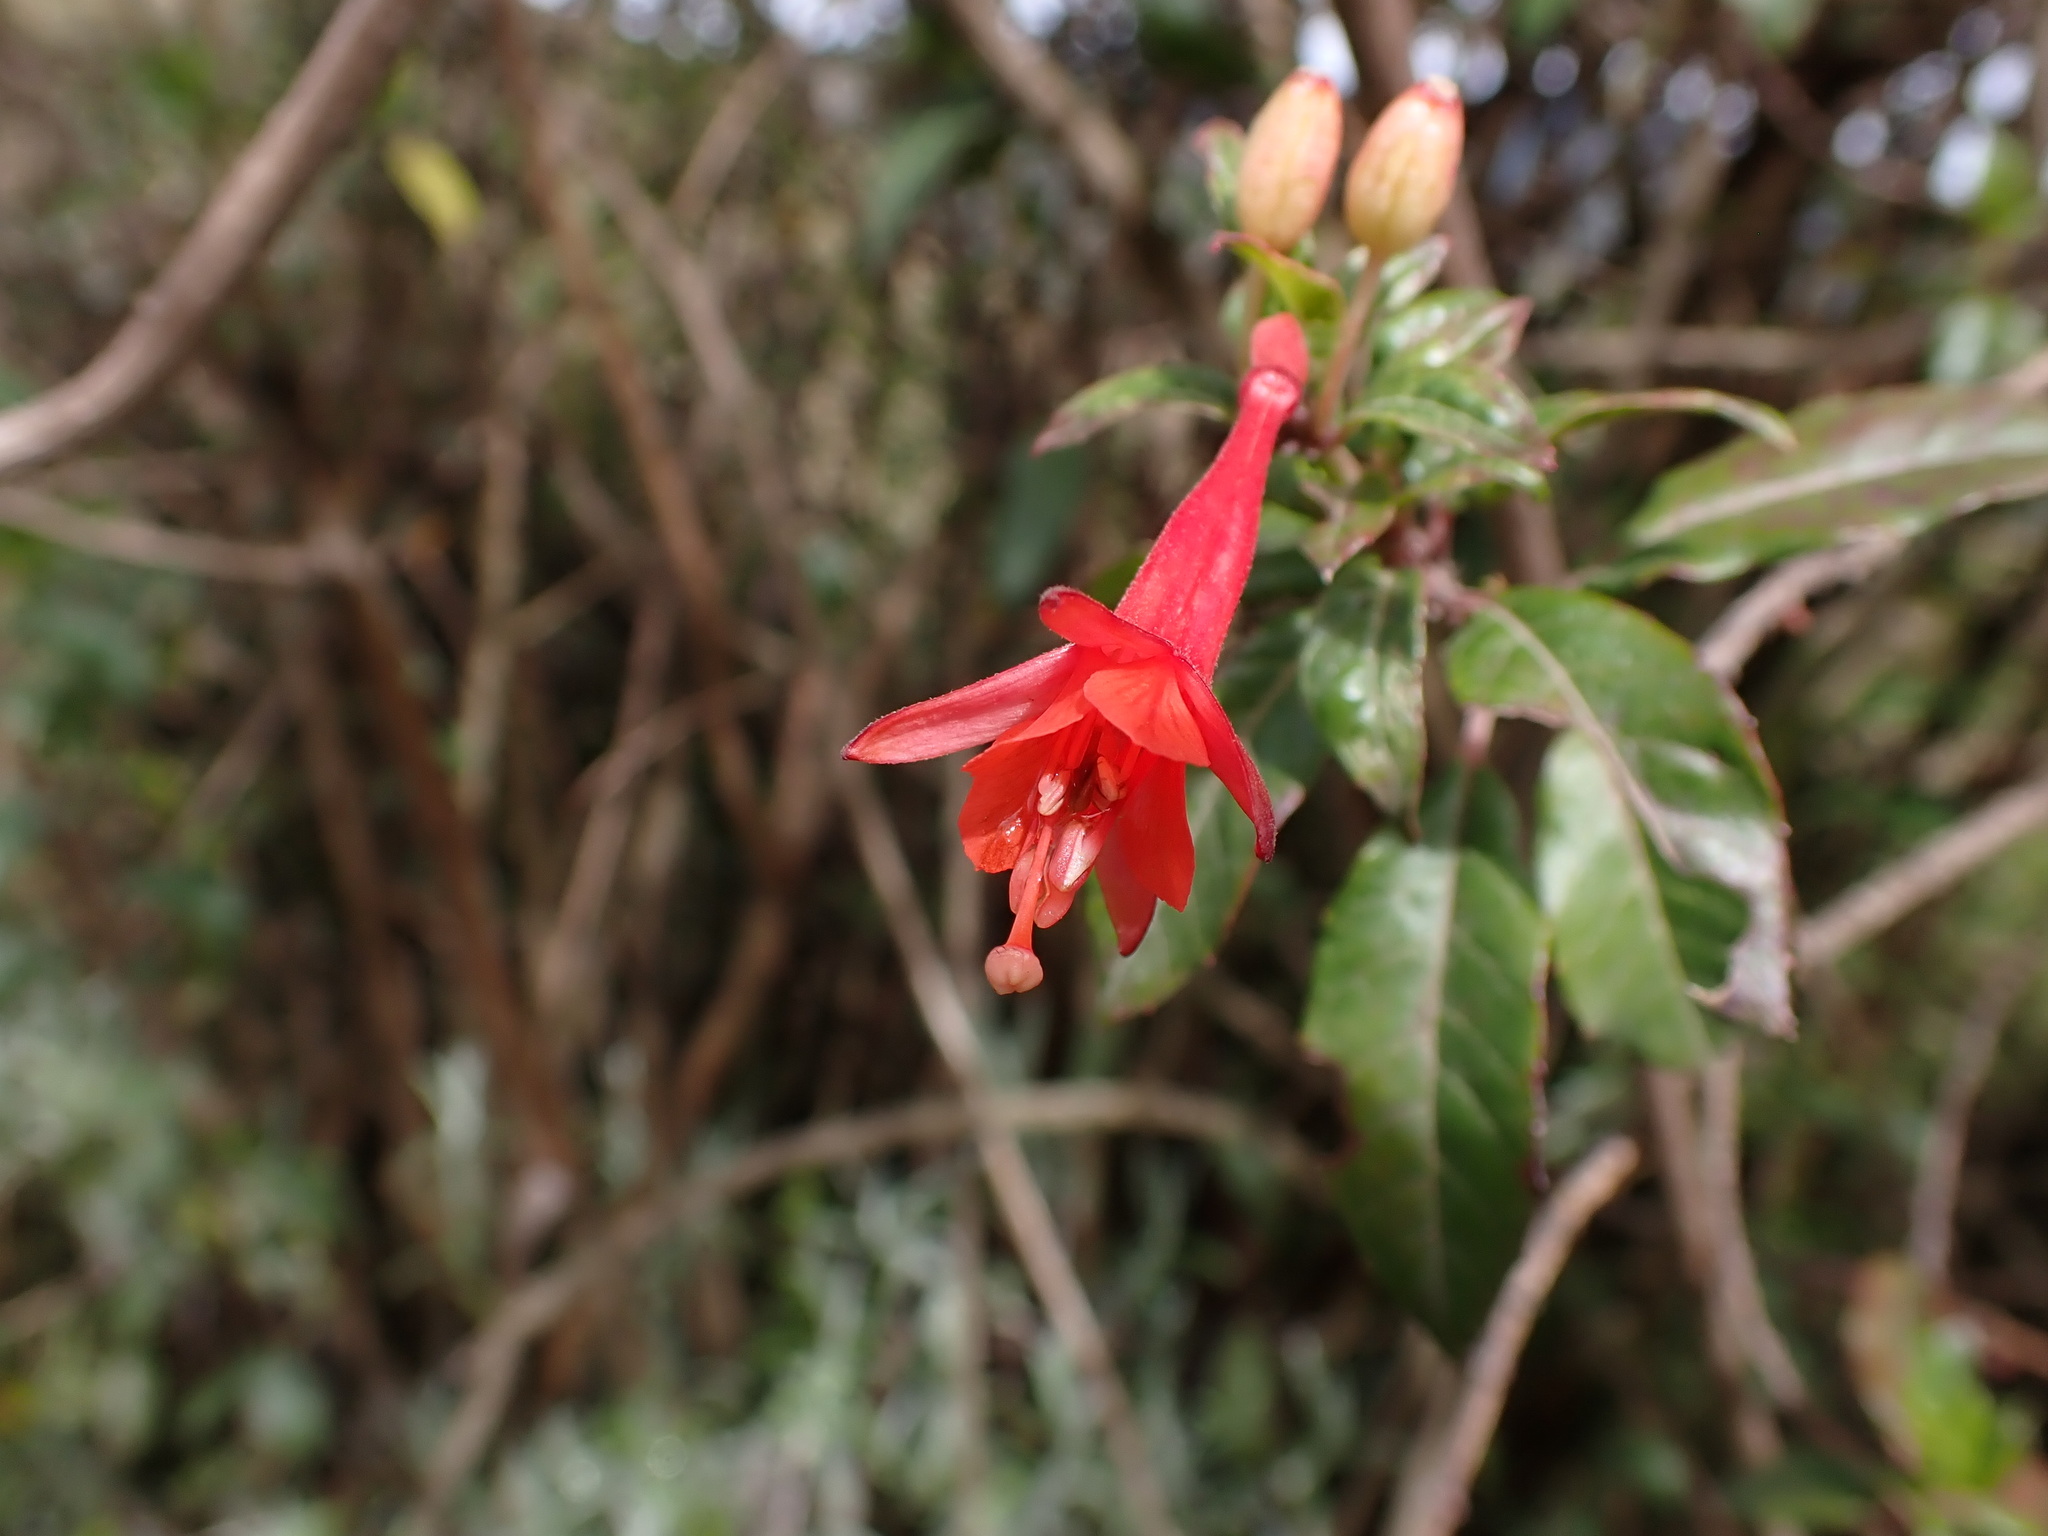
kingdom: Plantae
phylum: Tracheophyta
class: Magnoliopsida
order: Myrtales
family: Onagraceae
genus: Fuchsia
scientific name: Fuchsia ampliata
